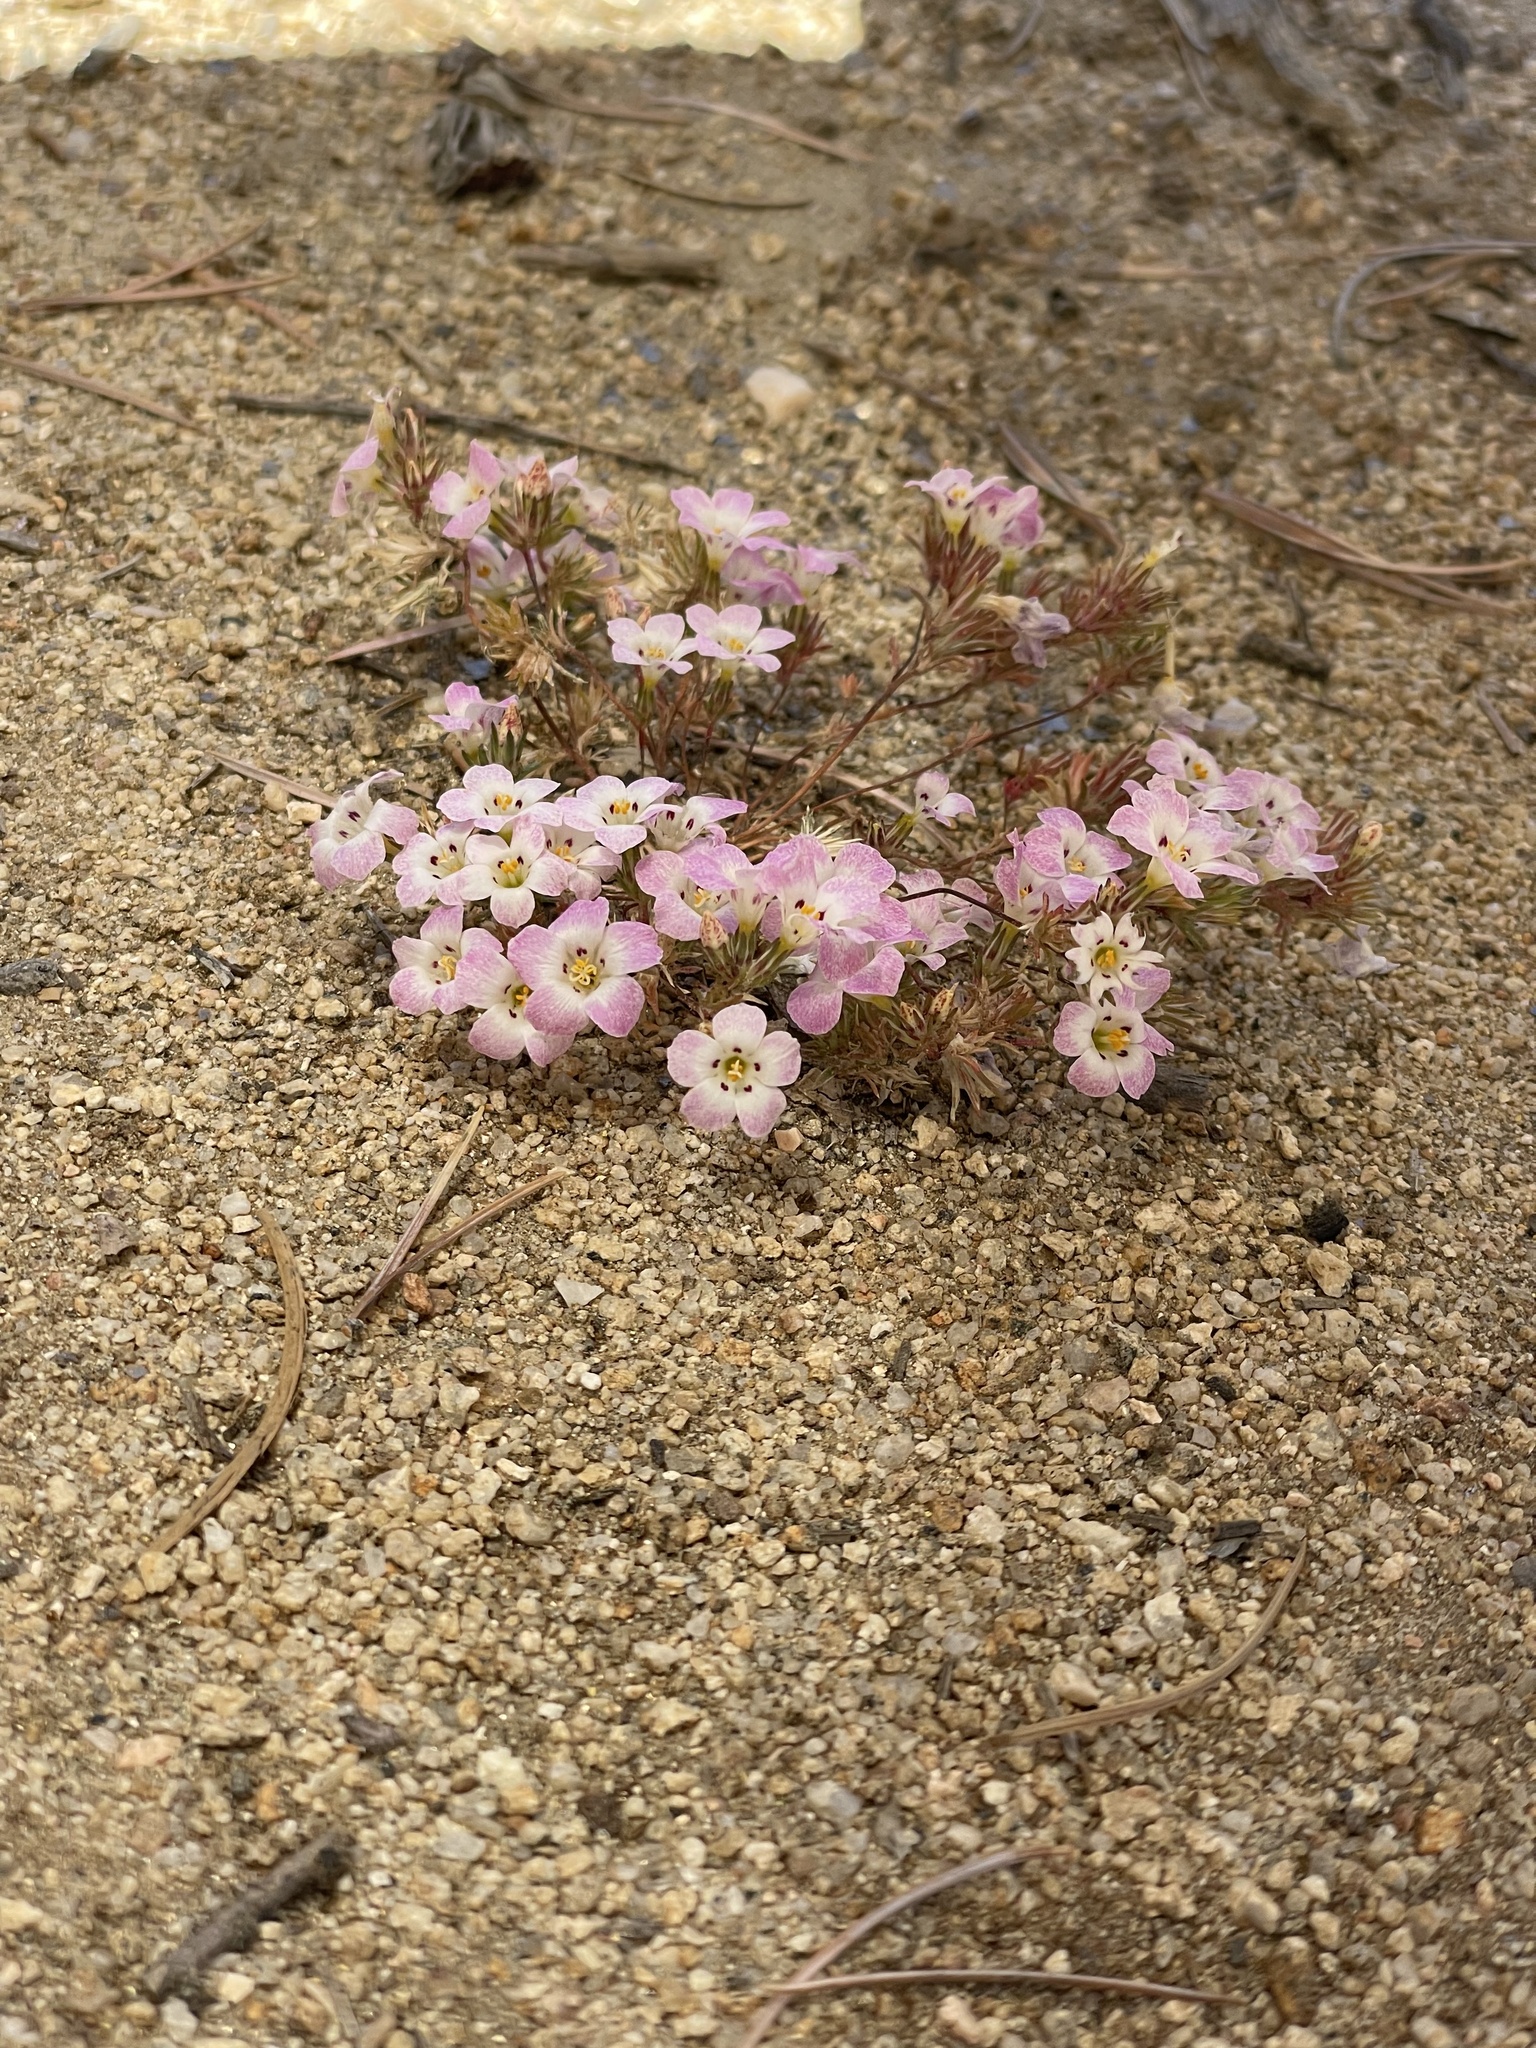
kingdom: Plantae
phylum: Tracheophyta
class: Magnoliopsida
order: Ericales
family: Polemoniaceae
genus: Linanthus
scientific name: Linanthus orcuttii
